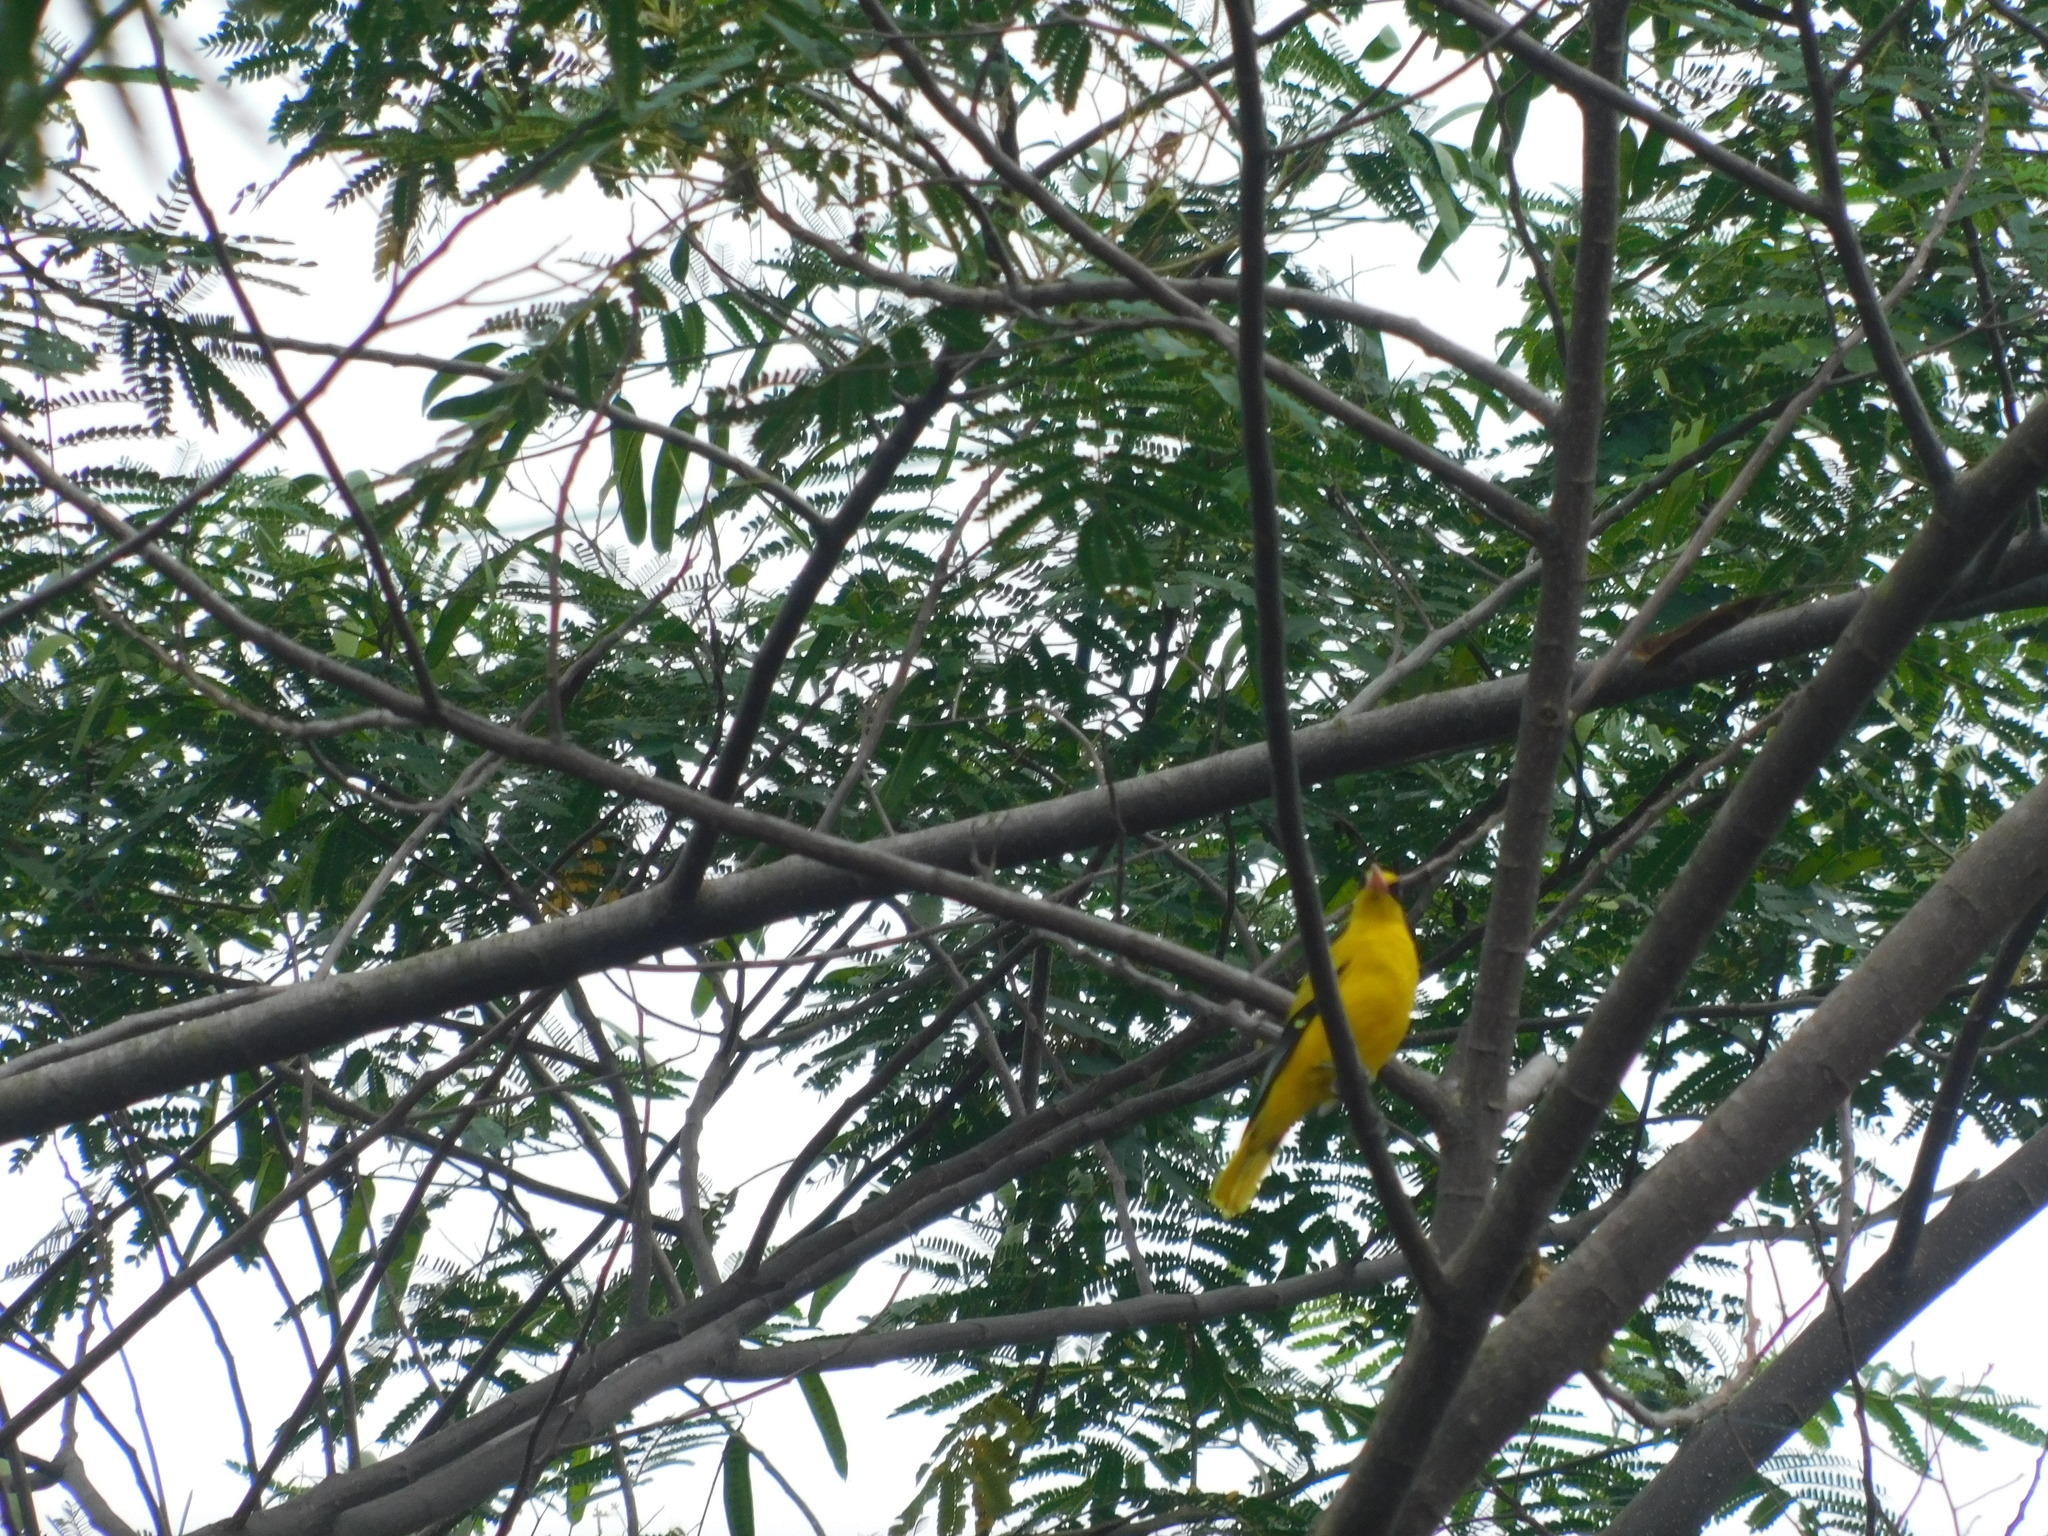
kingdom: Animalia
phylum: Chordata
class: Aves
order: Passeriformes
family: Oriolidae
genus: Oriolus
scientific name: Oriolus chinensis
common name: Black-naped oriole
